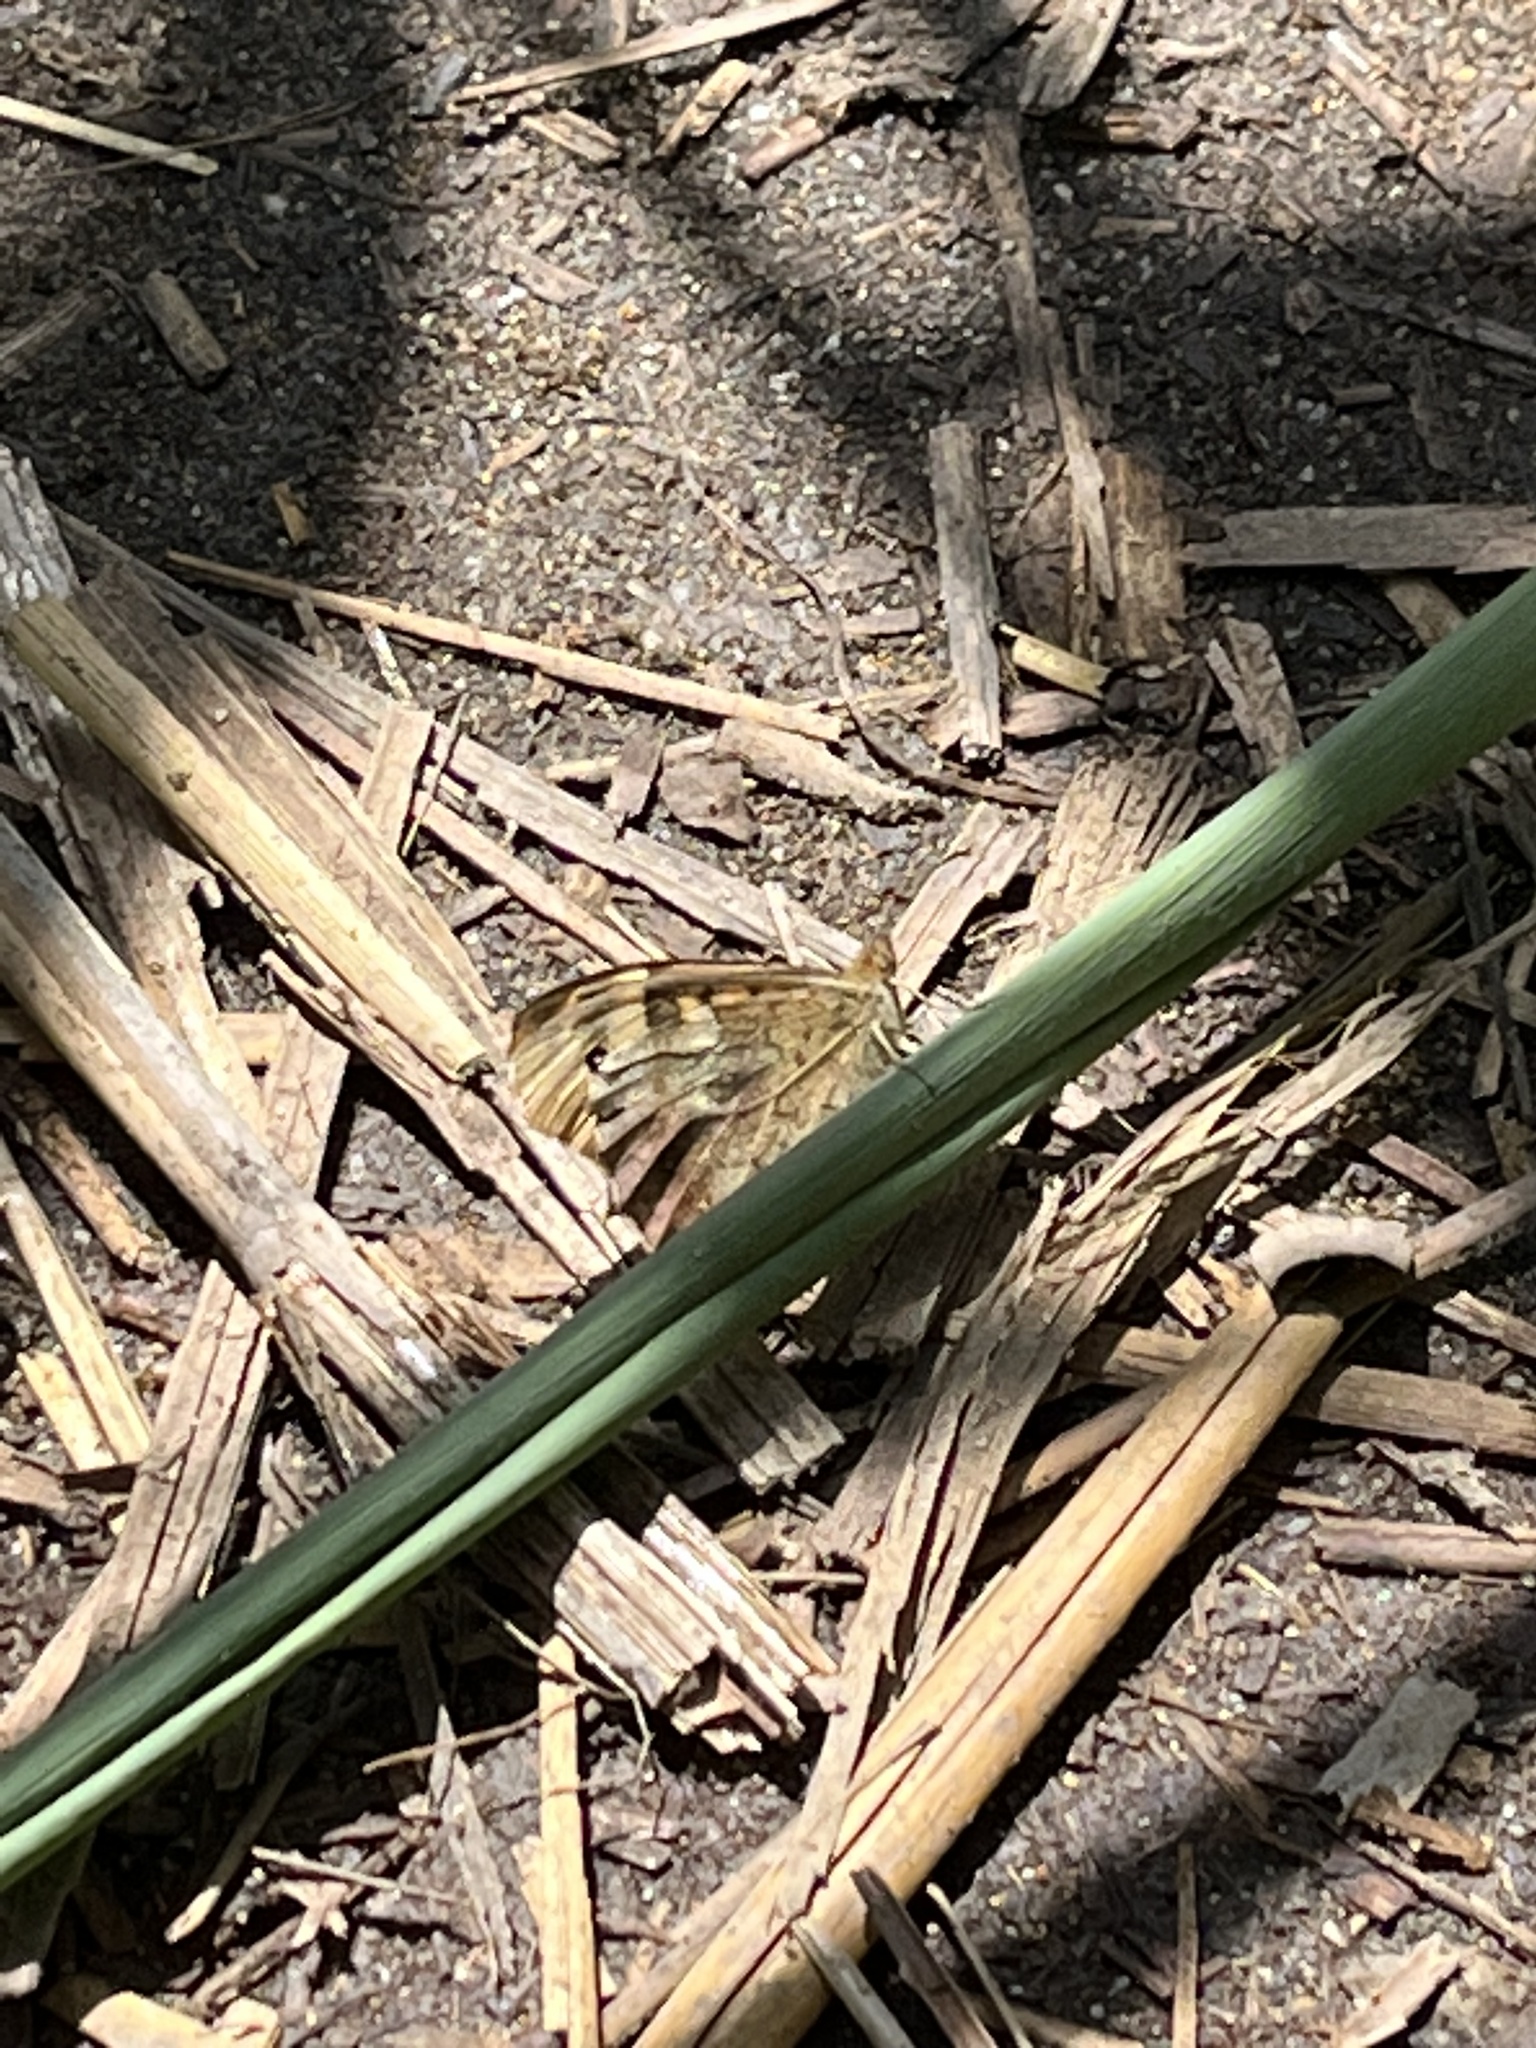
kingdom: Animalia
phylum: Arthropoda
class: Insecta
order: Lepidoptera
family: Nymphalidae
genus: Pararge
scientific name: Pararge aegeria
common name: Speckled wood
